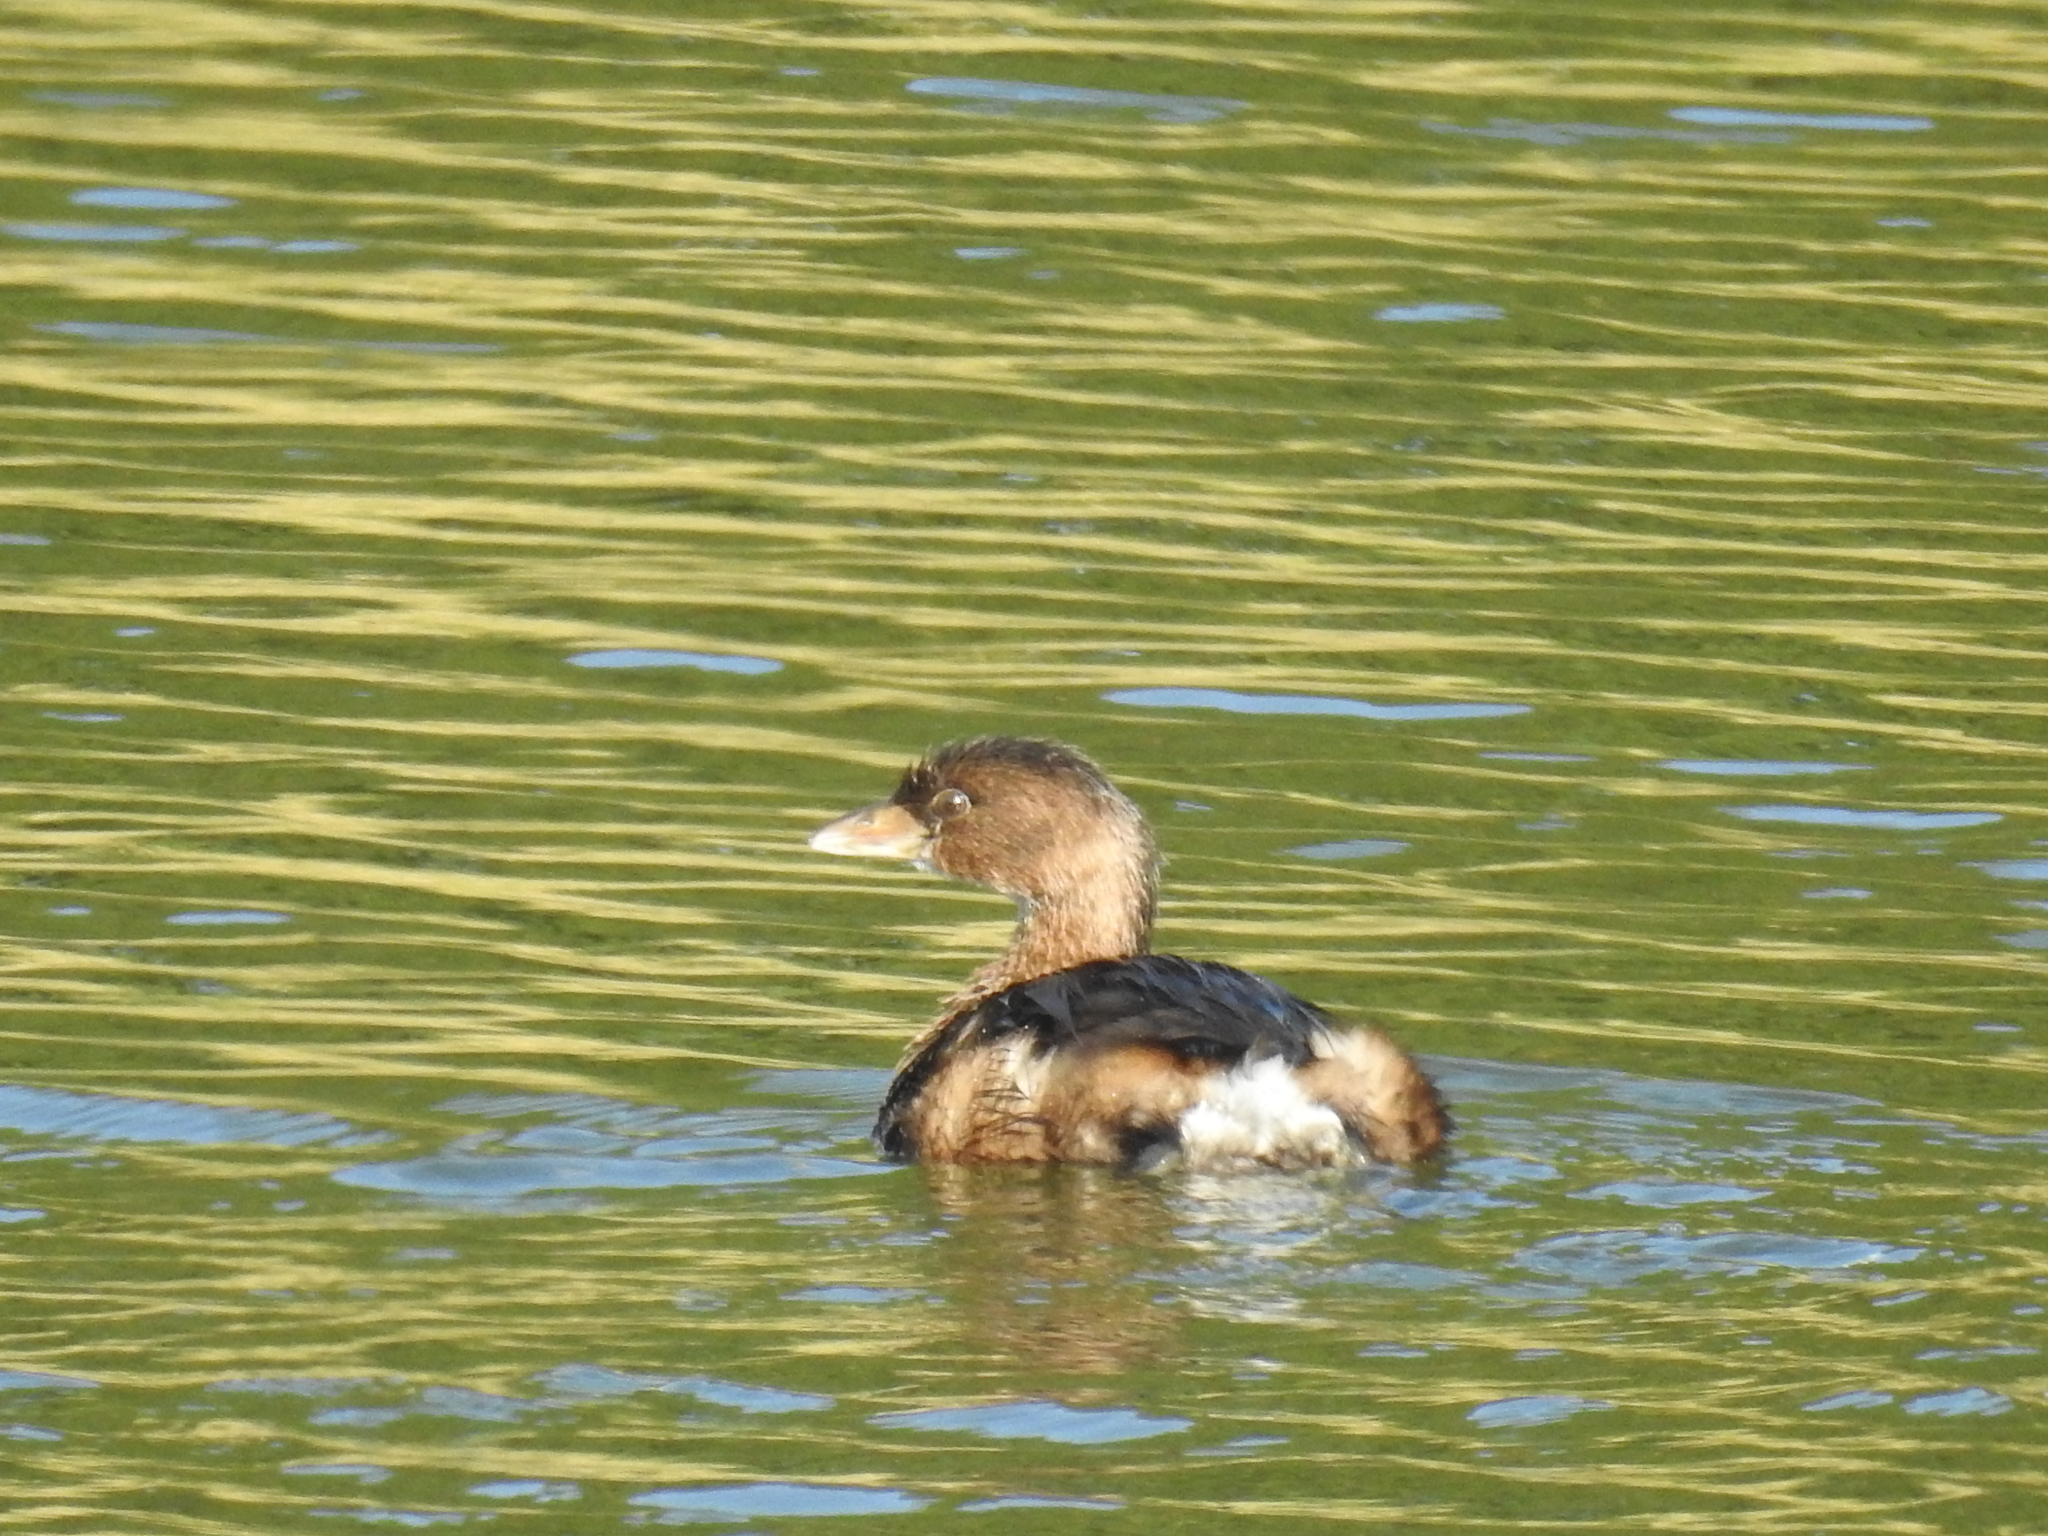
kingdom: Animalia
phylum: Chordata
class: Aves
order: Podicipediformes
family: Podicipedidae
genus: Podilymbus
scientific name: Podilymbus podiceps
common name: Pied-billed grebe
